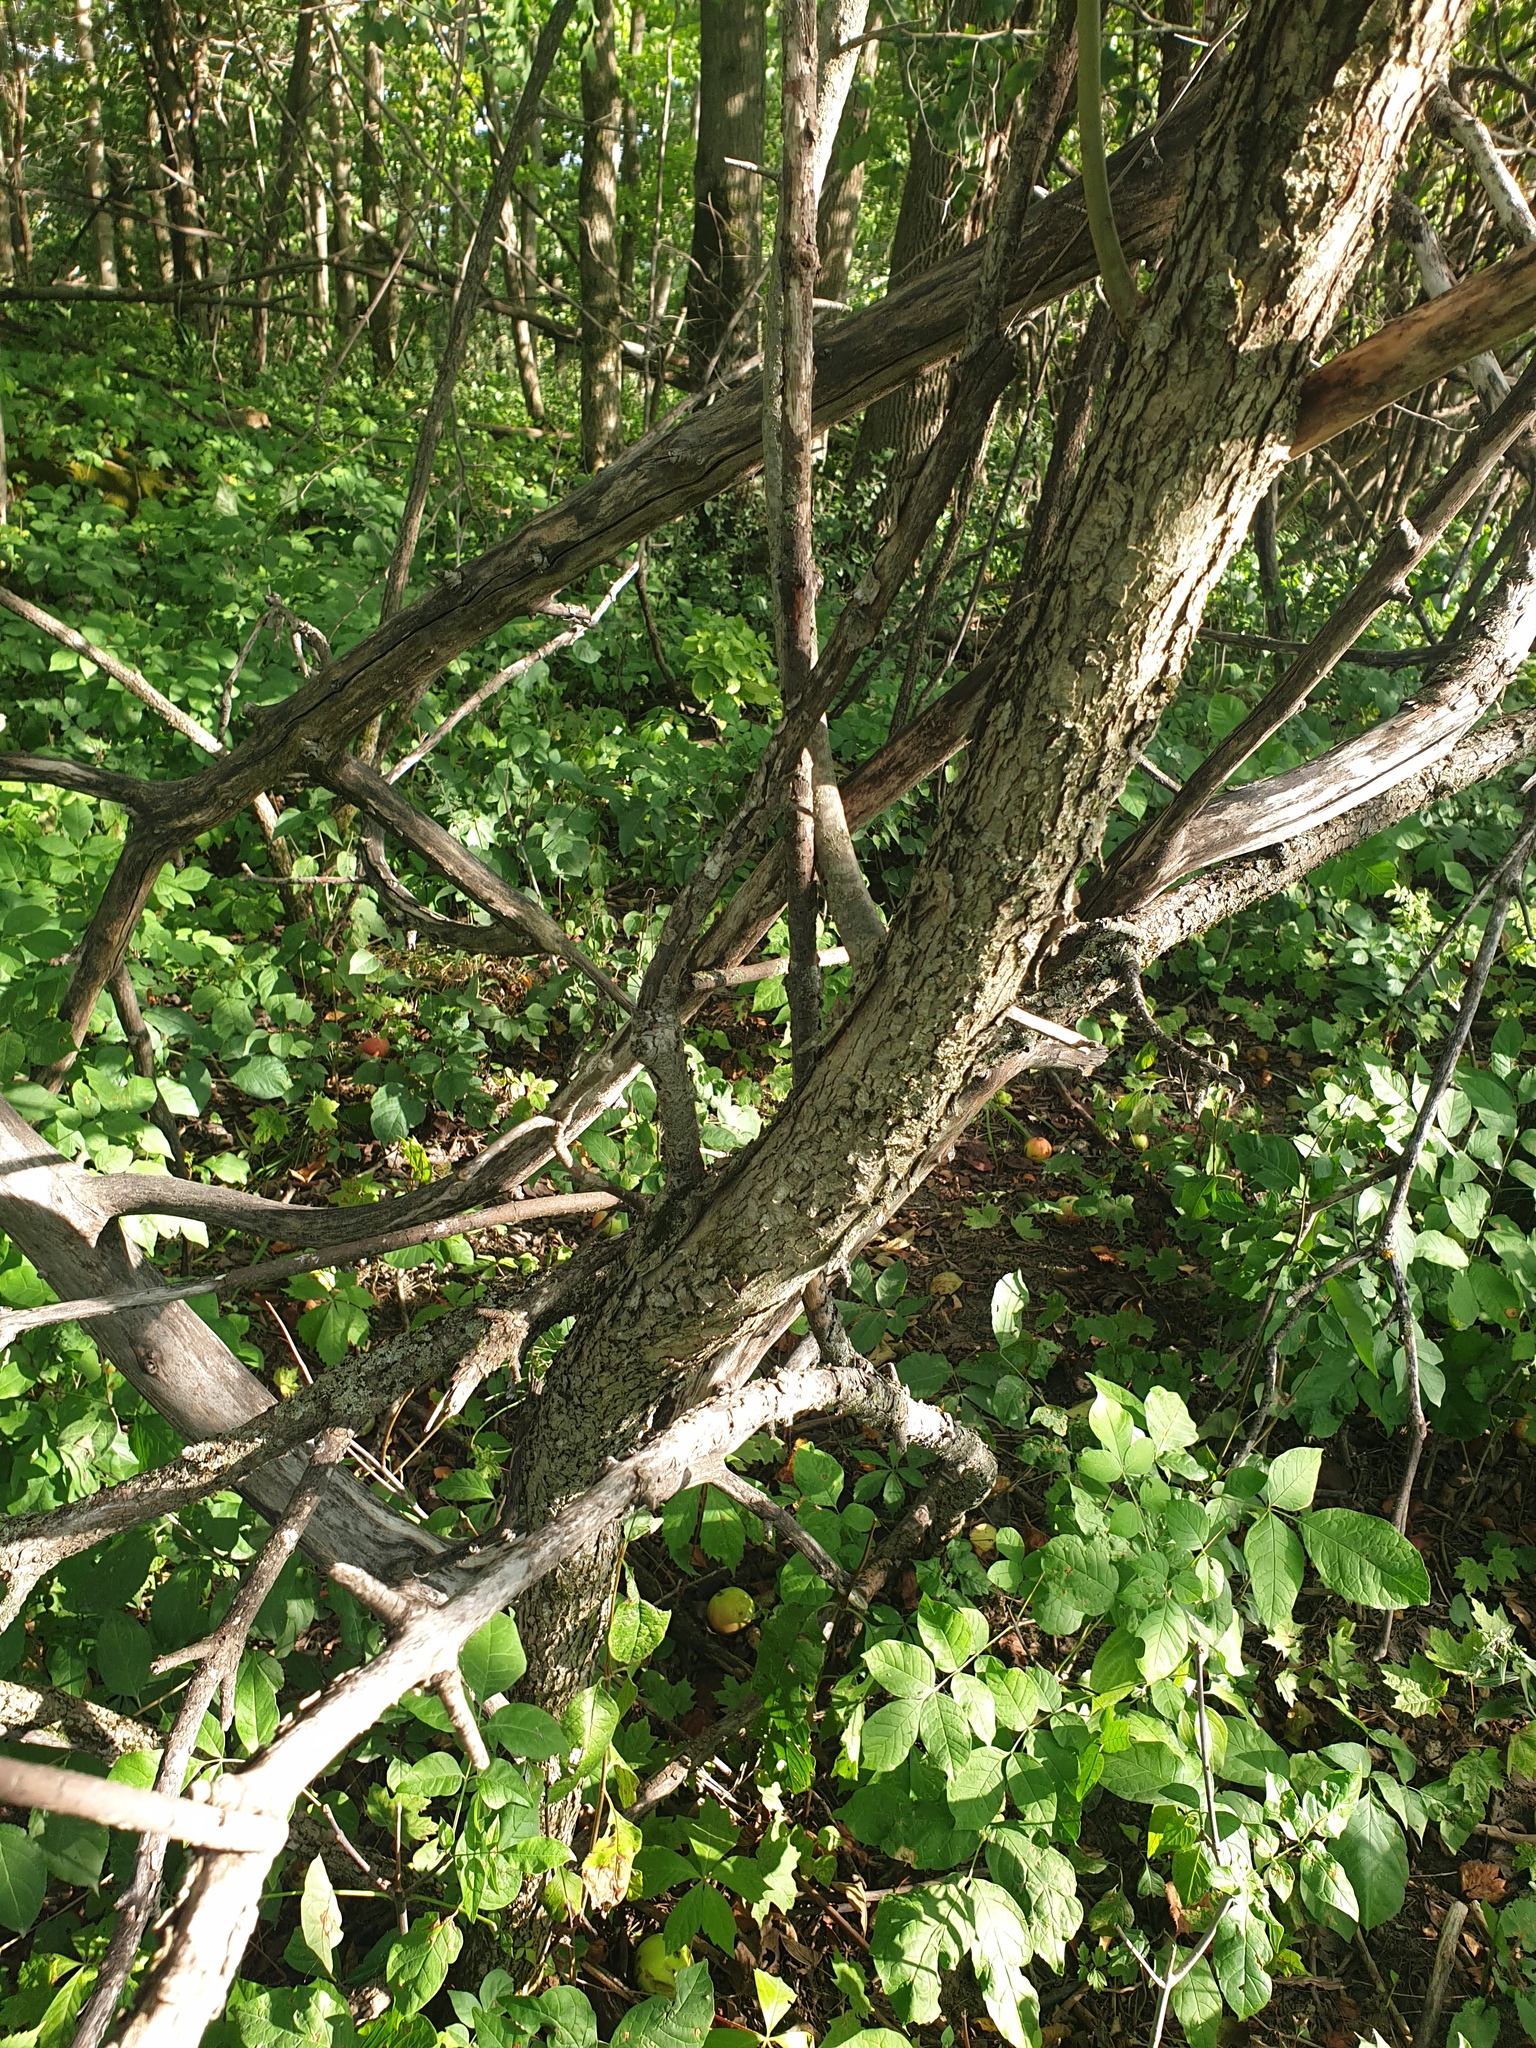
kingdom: Plantae
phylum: Tracheophyta
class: Magnoliopsida
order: Rosales
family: Rosaceae
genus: Crataegus
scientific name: Crataegus macracantha
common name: Large-thorn hawthorn
